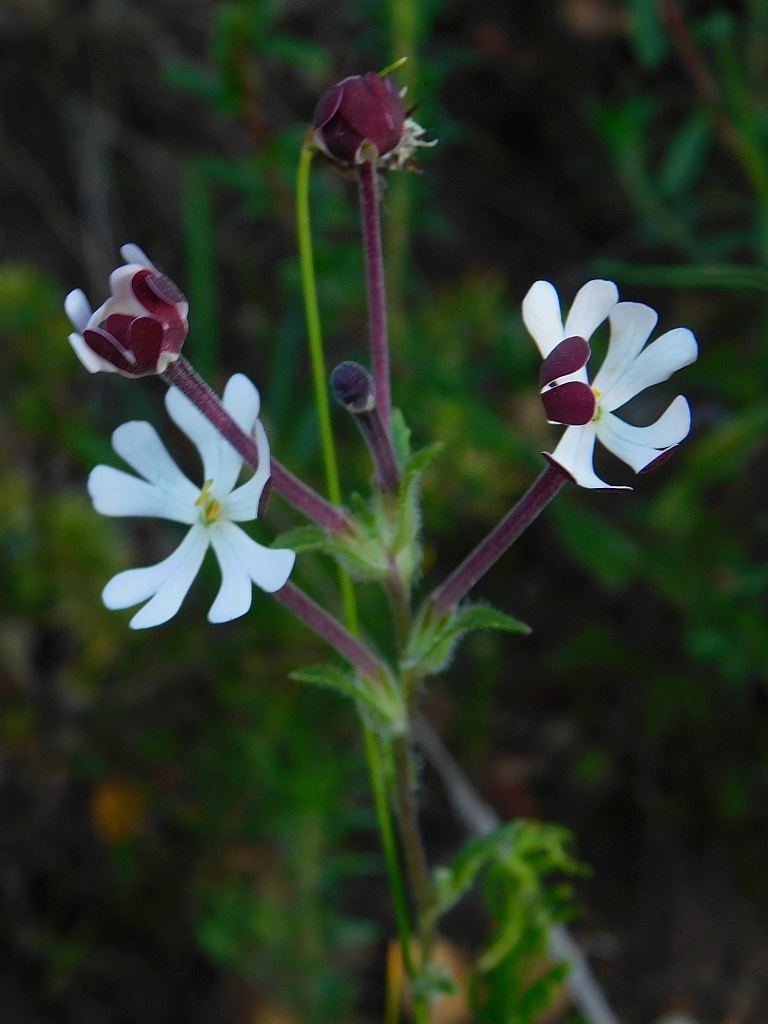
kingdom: Plantae
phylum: Tracheophyta
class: Magnoliopsida
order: Lamiales
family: Scrophulariaceae
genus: Zaluzianskya
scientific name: Zaluzianskya capensis
